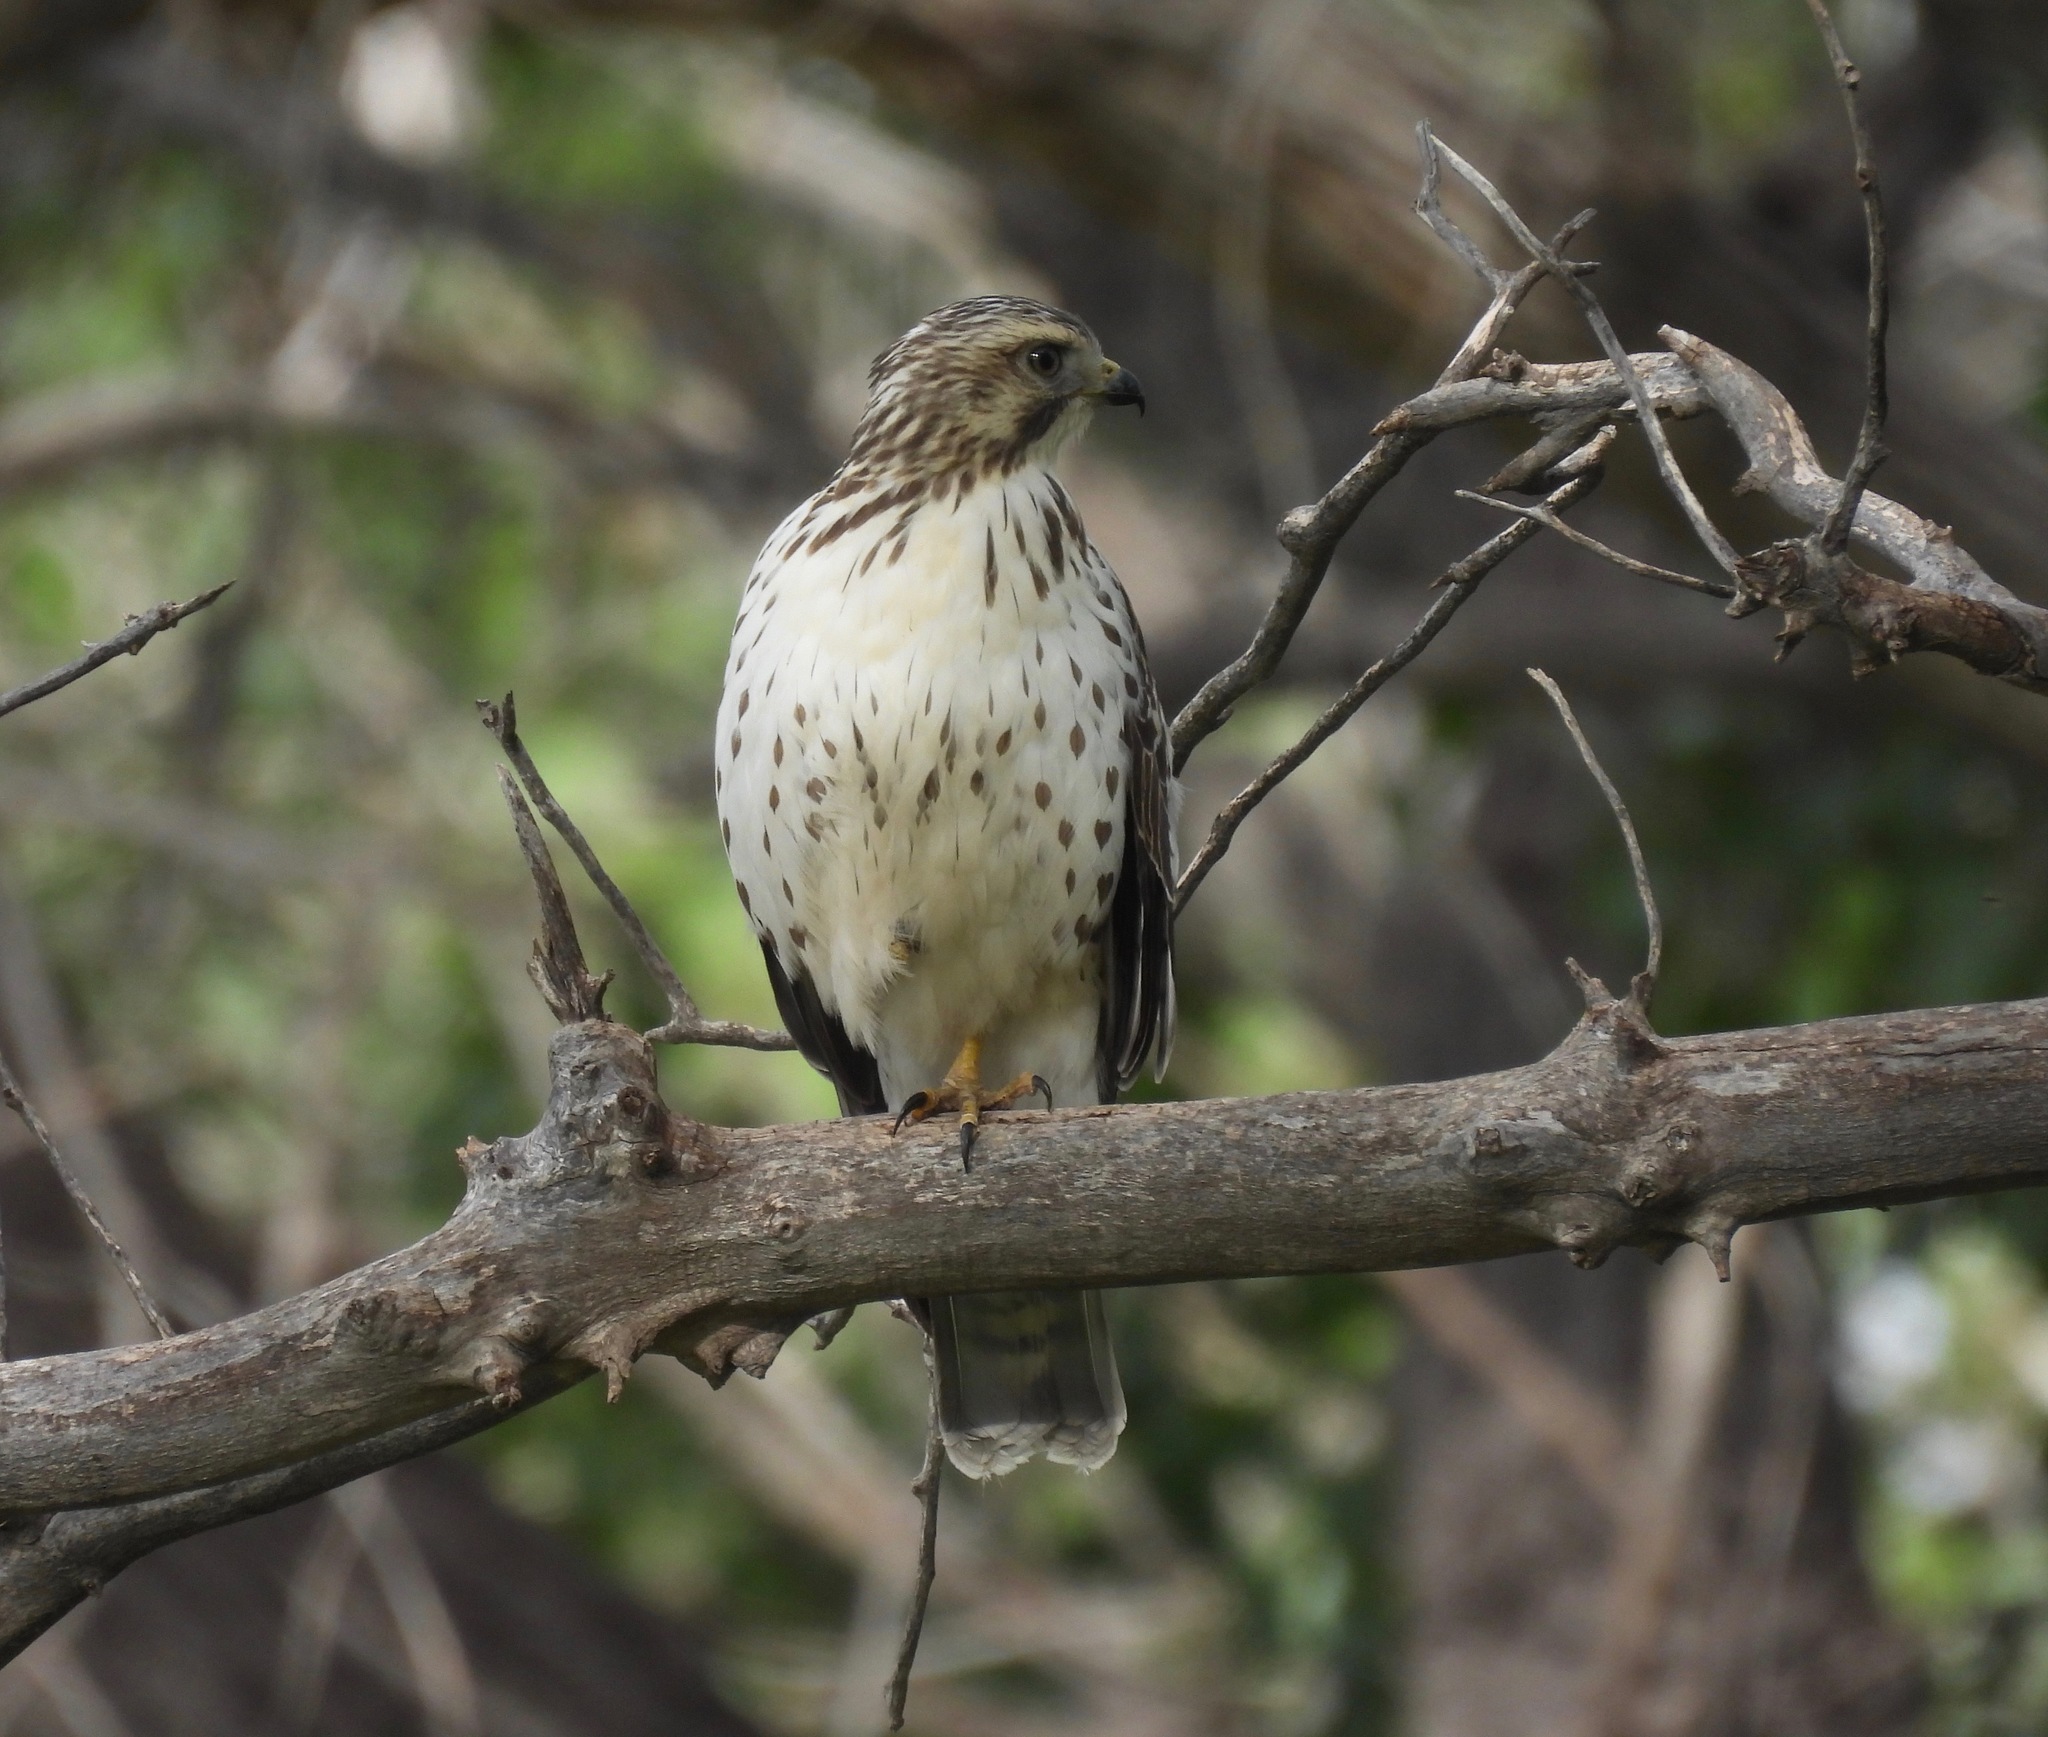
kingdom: Animalia
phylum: Chordata
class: Aves
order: Accipitriformes
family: Accipitridae
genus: Buteo
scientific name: Buteo platypterus
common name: Broad-winged hawk
